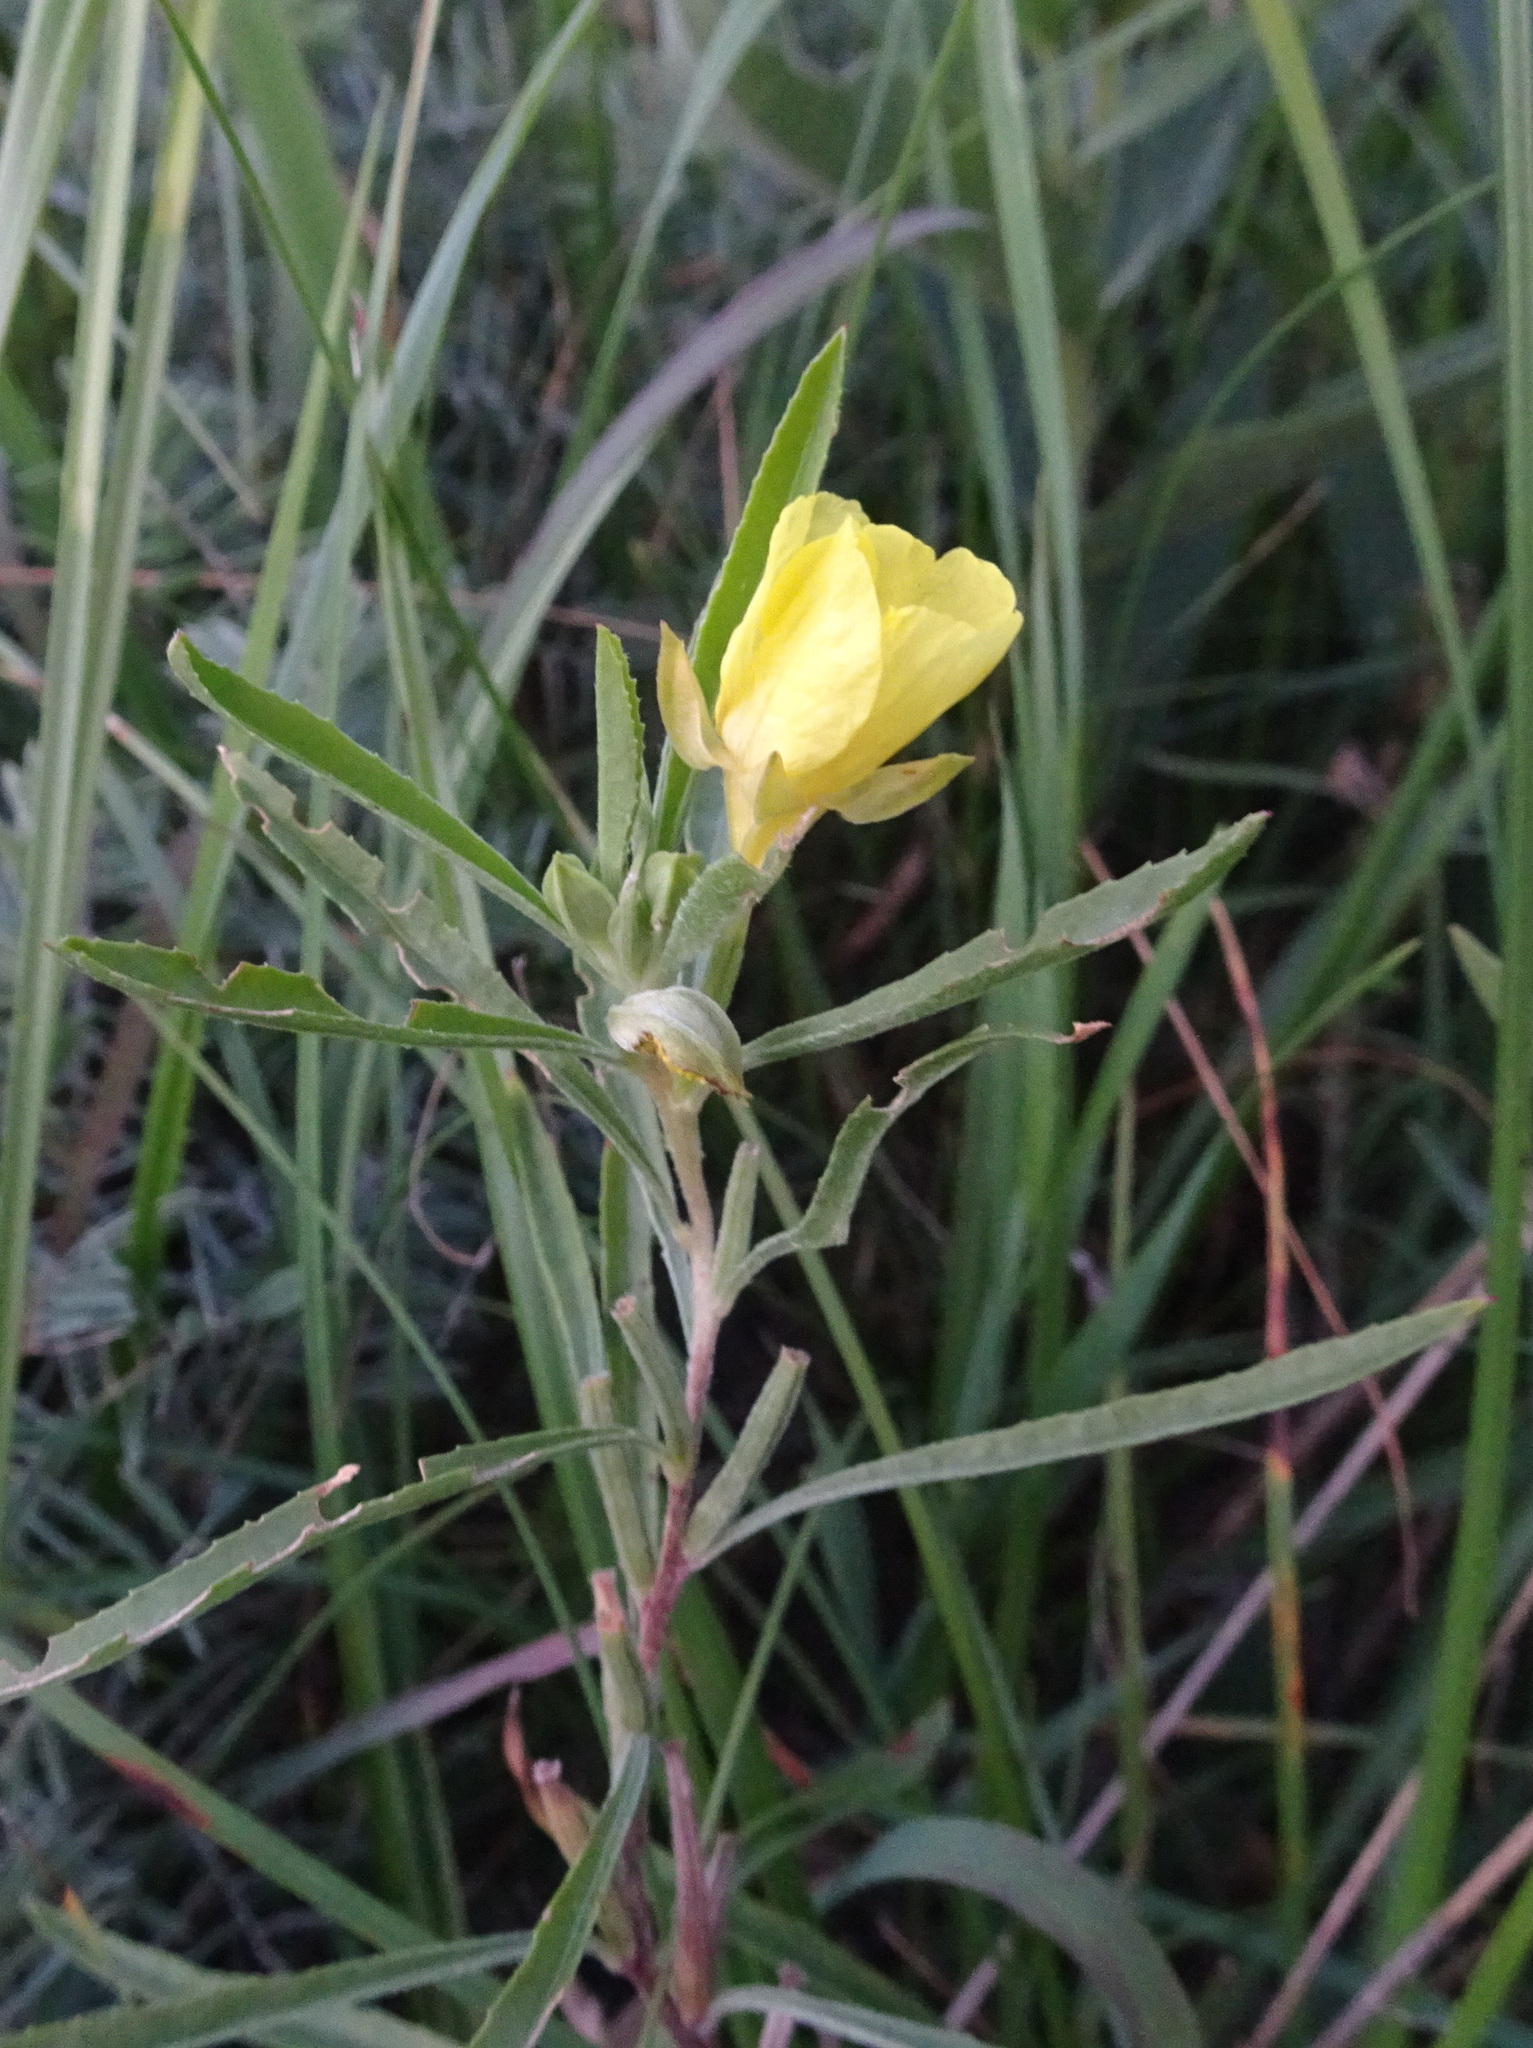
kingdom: Plantae
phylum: Tracheophyta
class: Magnoliopsida
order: Myrtales
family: Onagraceae
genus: Oenothera
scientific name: Oenothera serrulata
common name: Half-shrub calylophus
